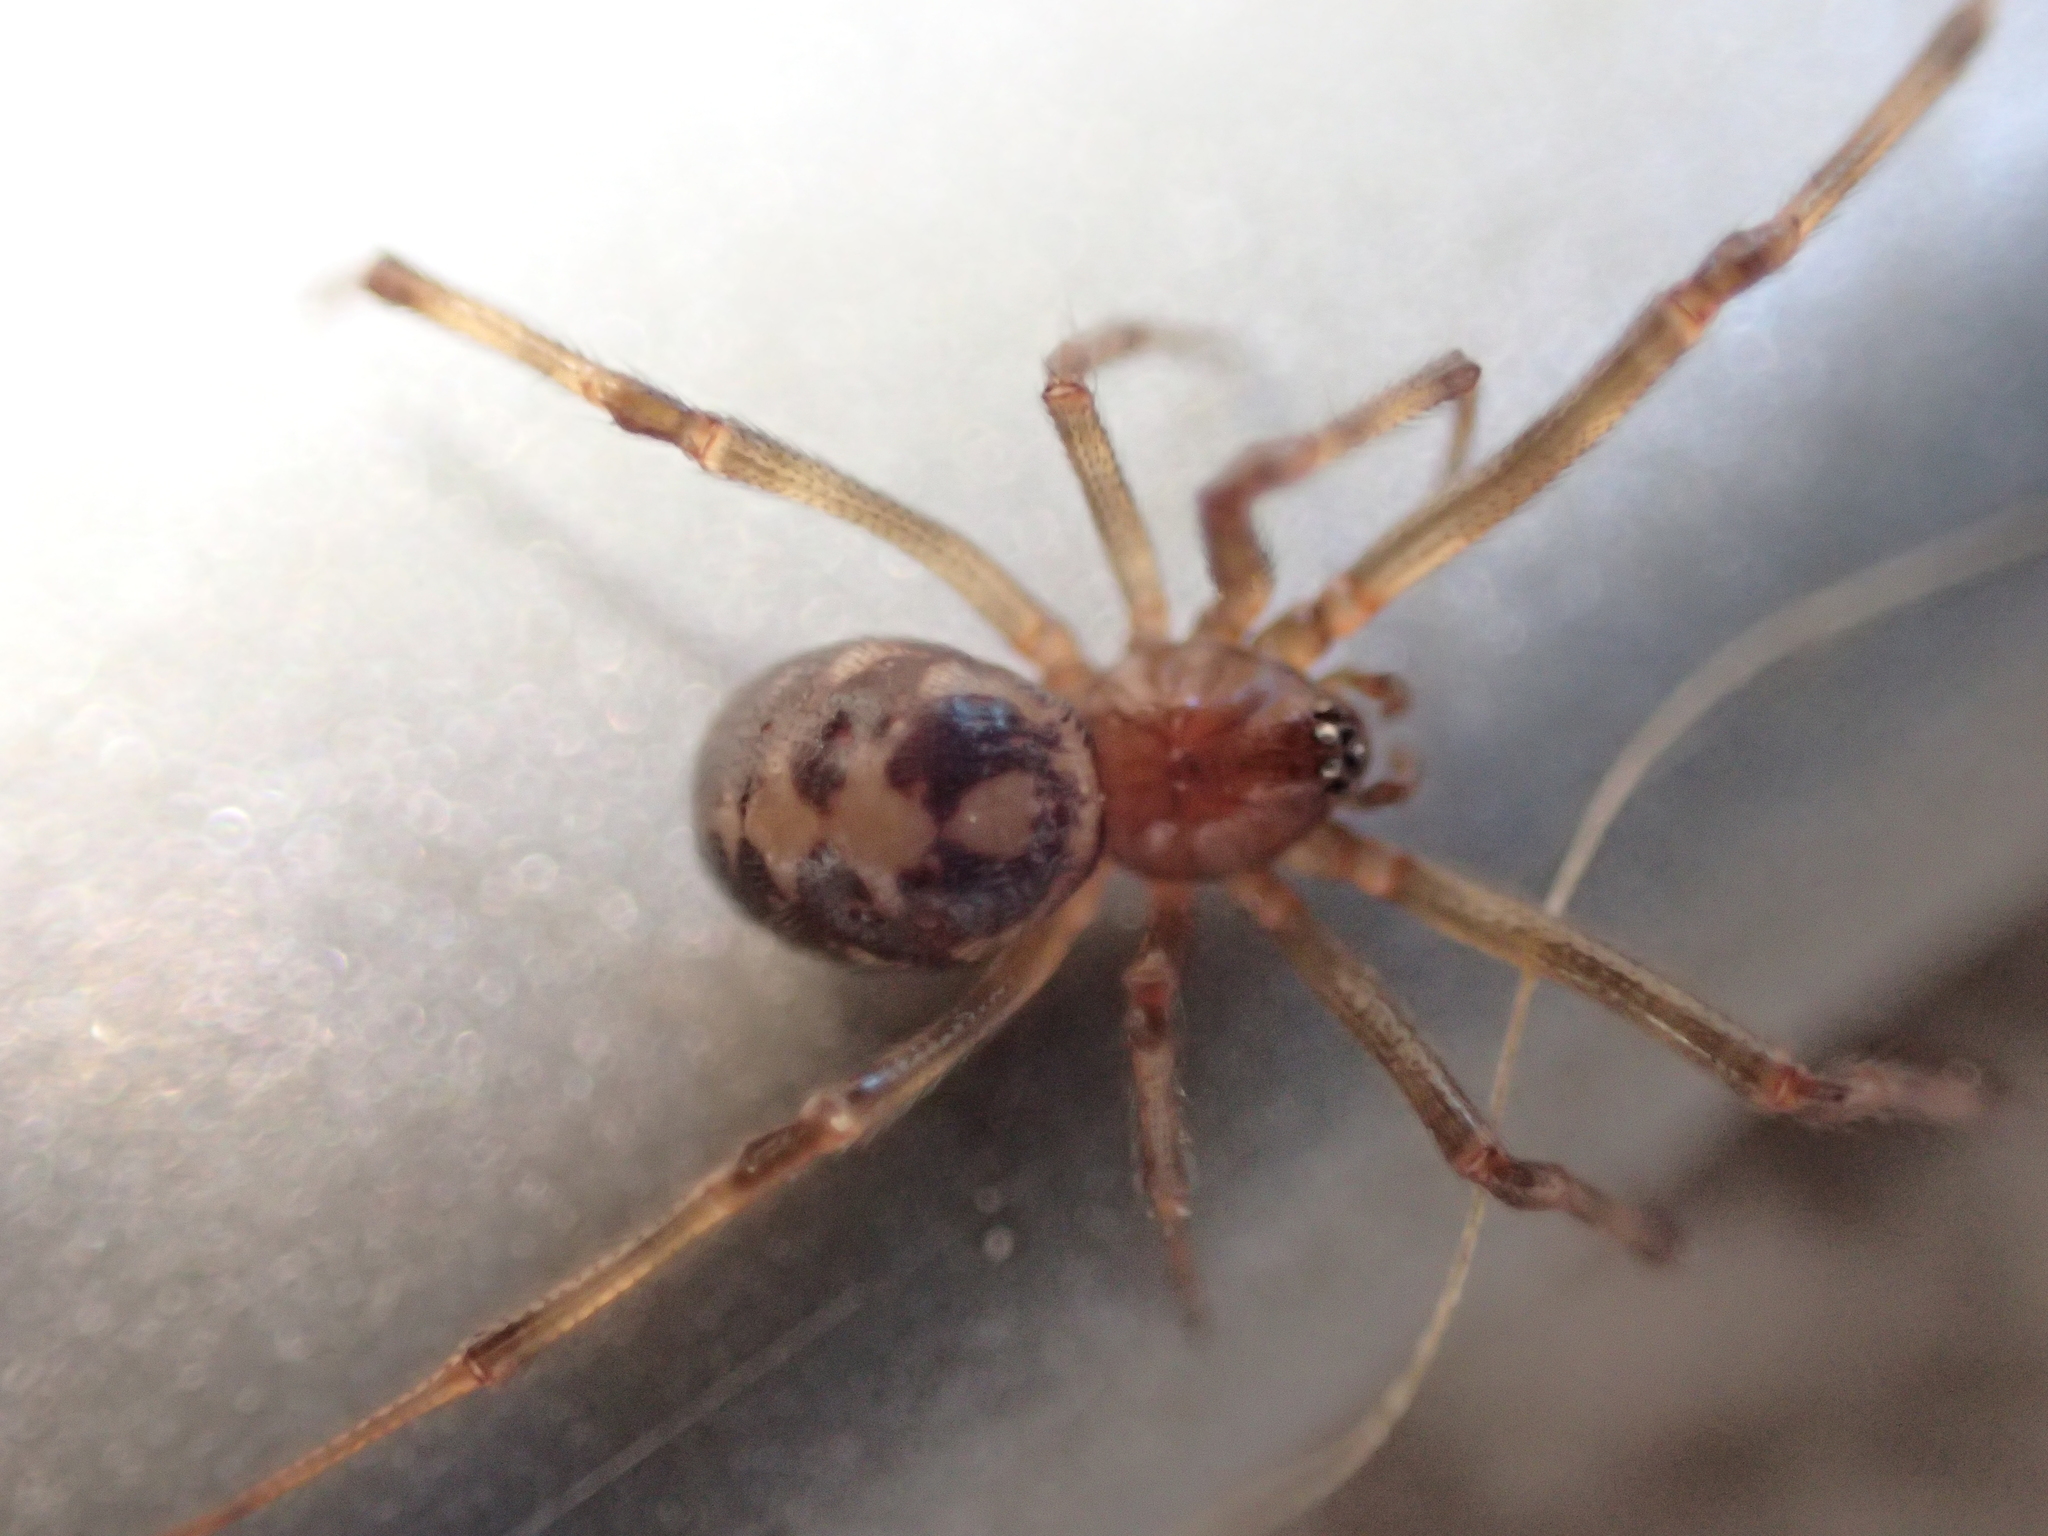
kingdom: Animalia
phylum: Arthropoda
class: Arachnida
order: Araneae
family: Theridiidae
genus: Steatoda
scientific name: Steatoda triangulosa
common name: Triangulate bud spider
